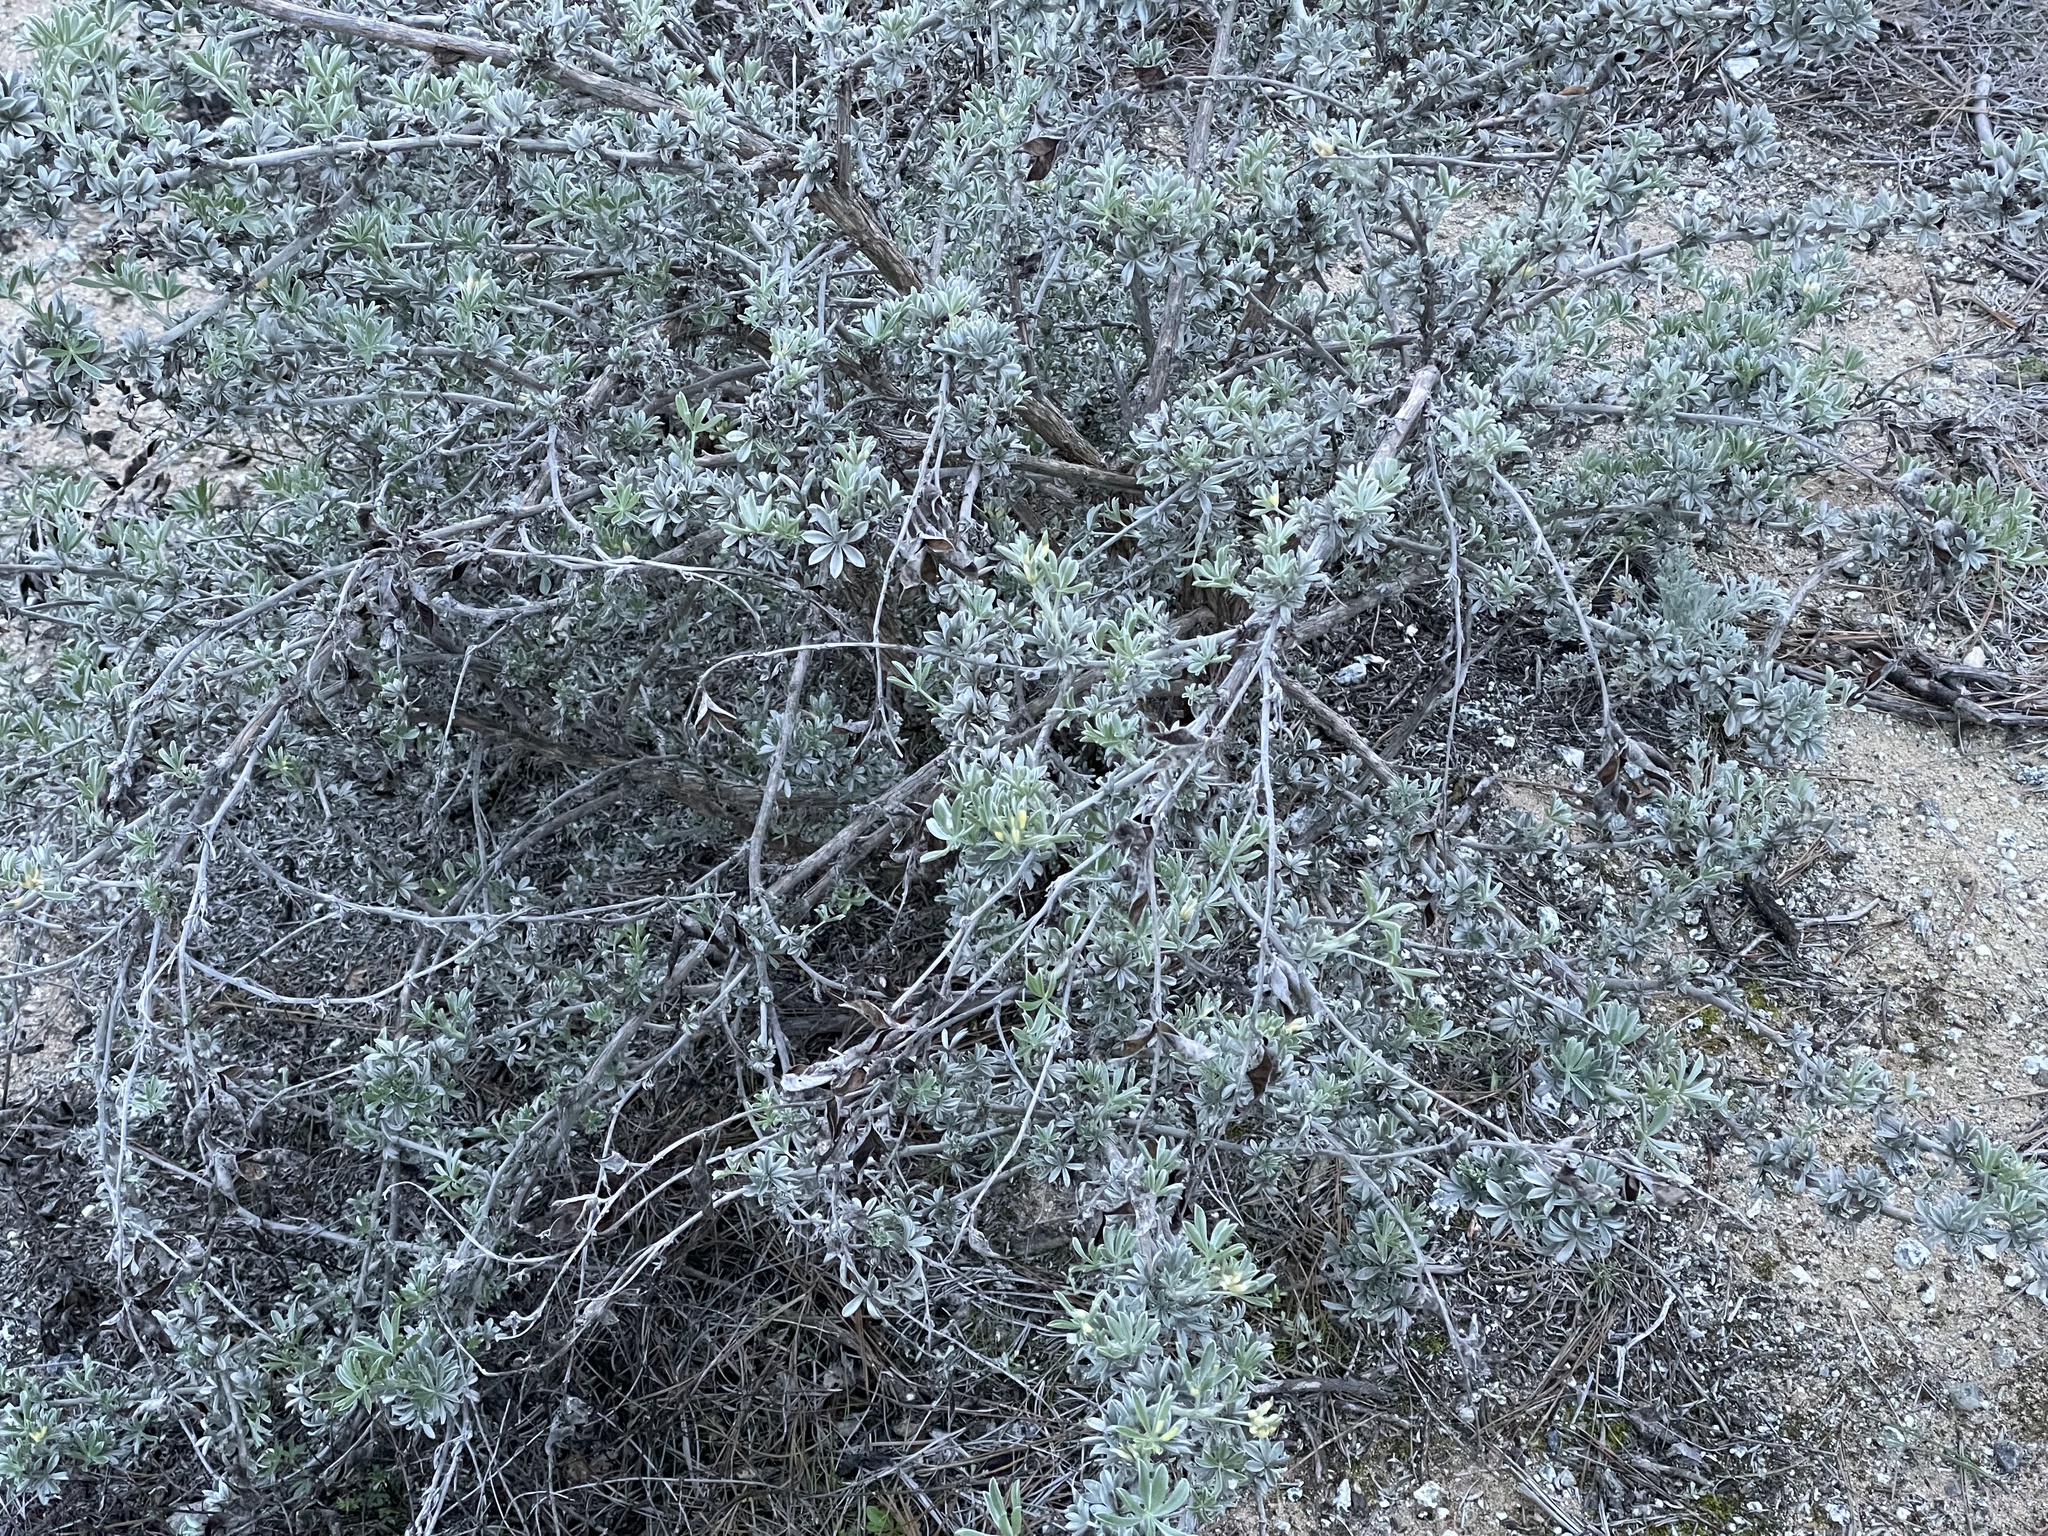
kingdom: Plantae
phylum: Tracheophyta
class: Magnoliopsida
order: Fabales
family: Fabaceae
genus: Lupinus
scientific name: Lupinus chamissonis
